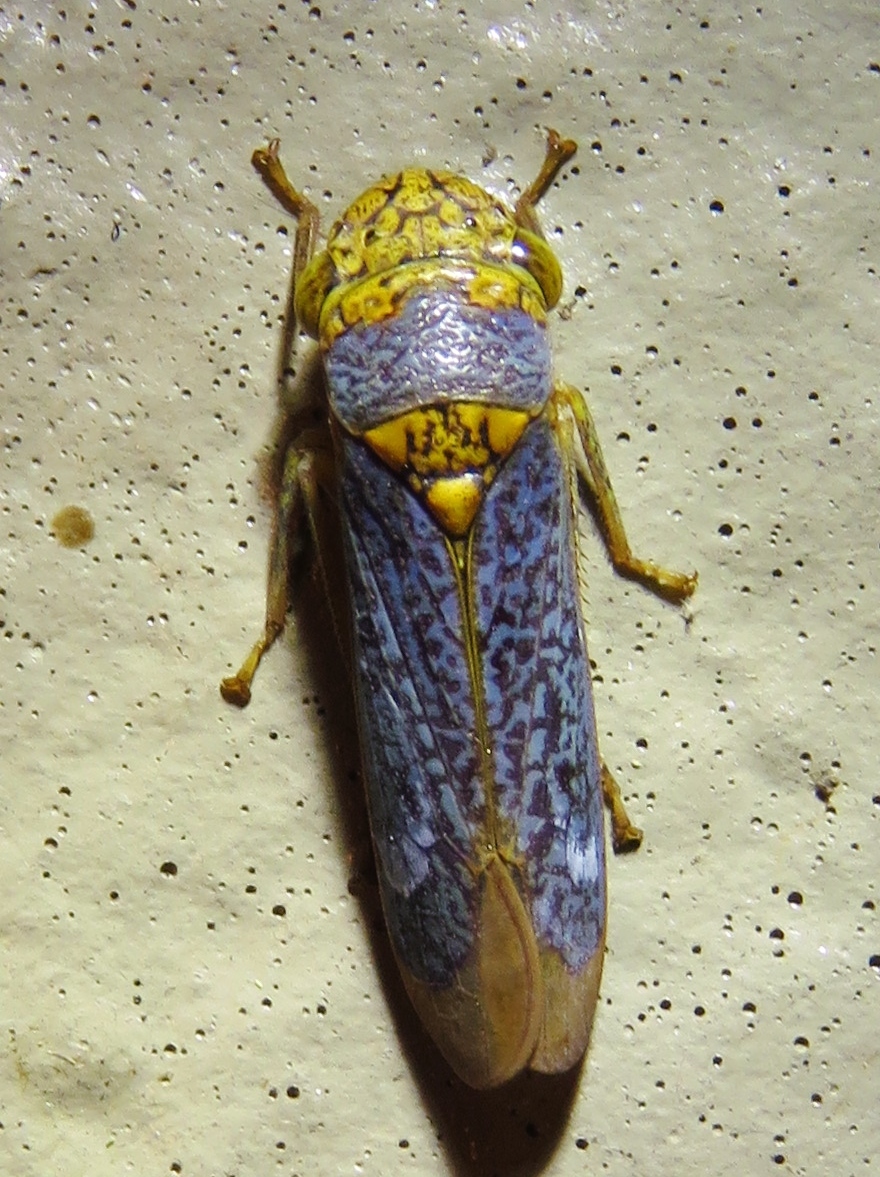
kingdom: Animalia
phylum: Arthropoda
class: Insecta
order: Hemiptera
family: Cicadellidae
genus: Oncometopia
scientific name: Oncometopia orbona
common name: Broad-headed sharpshooter
